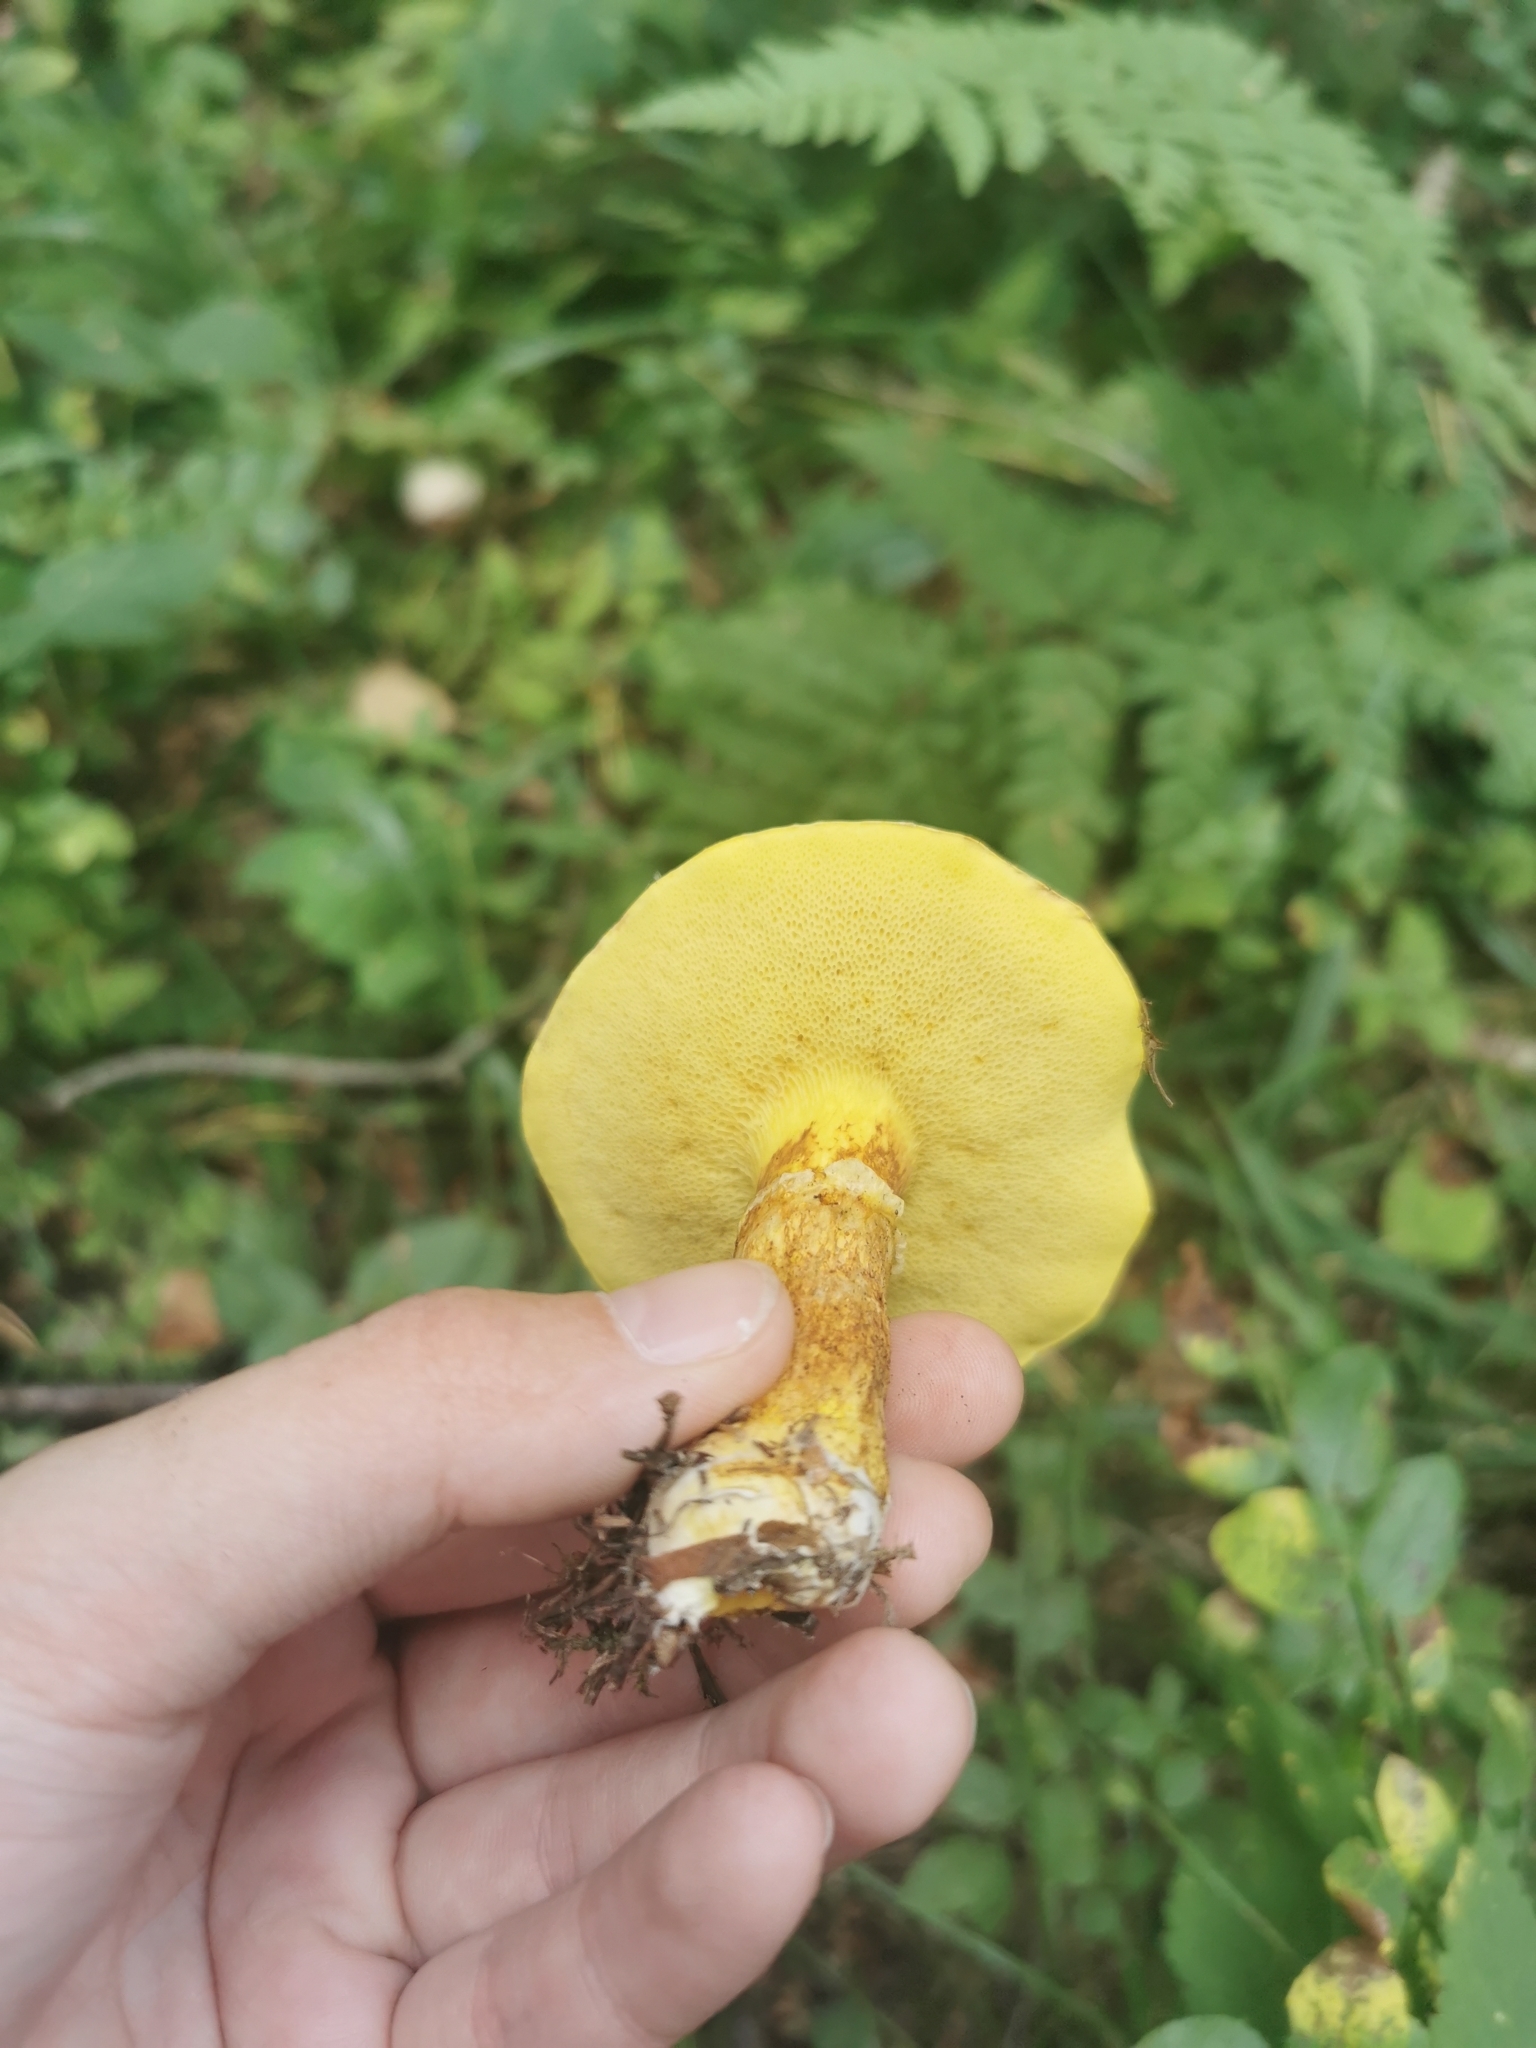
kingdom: Fungi
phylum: Basidiomycota
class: Agaricomycetes
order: Boletales
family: Suillaceae
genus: Suillus
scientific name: Suillus grevillei
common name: Larch bolete
